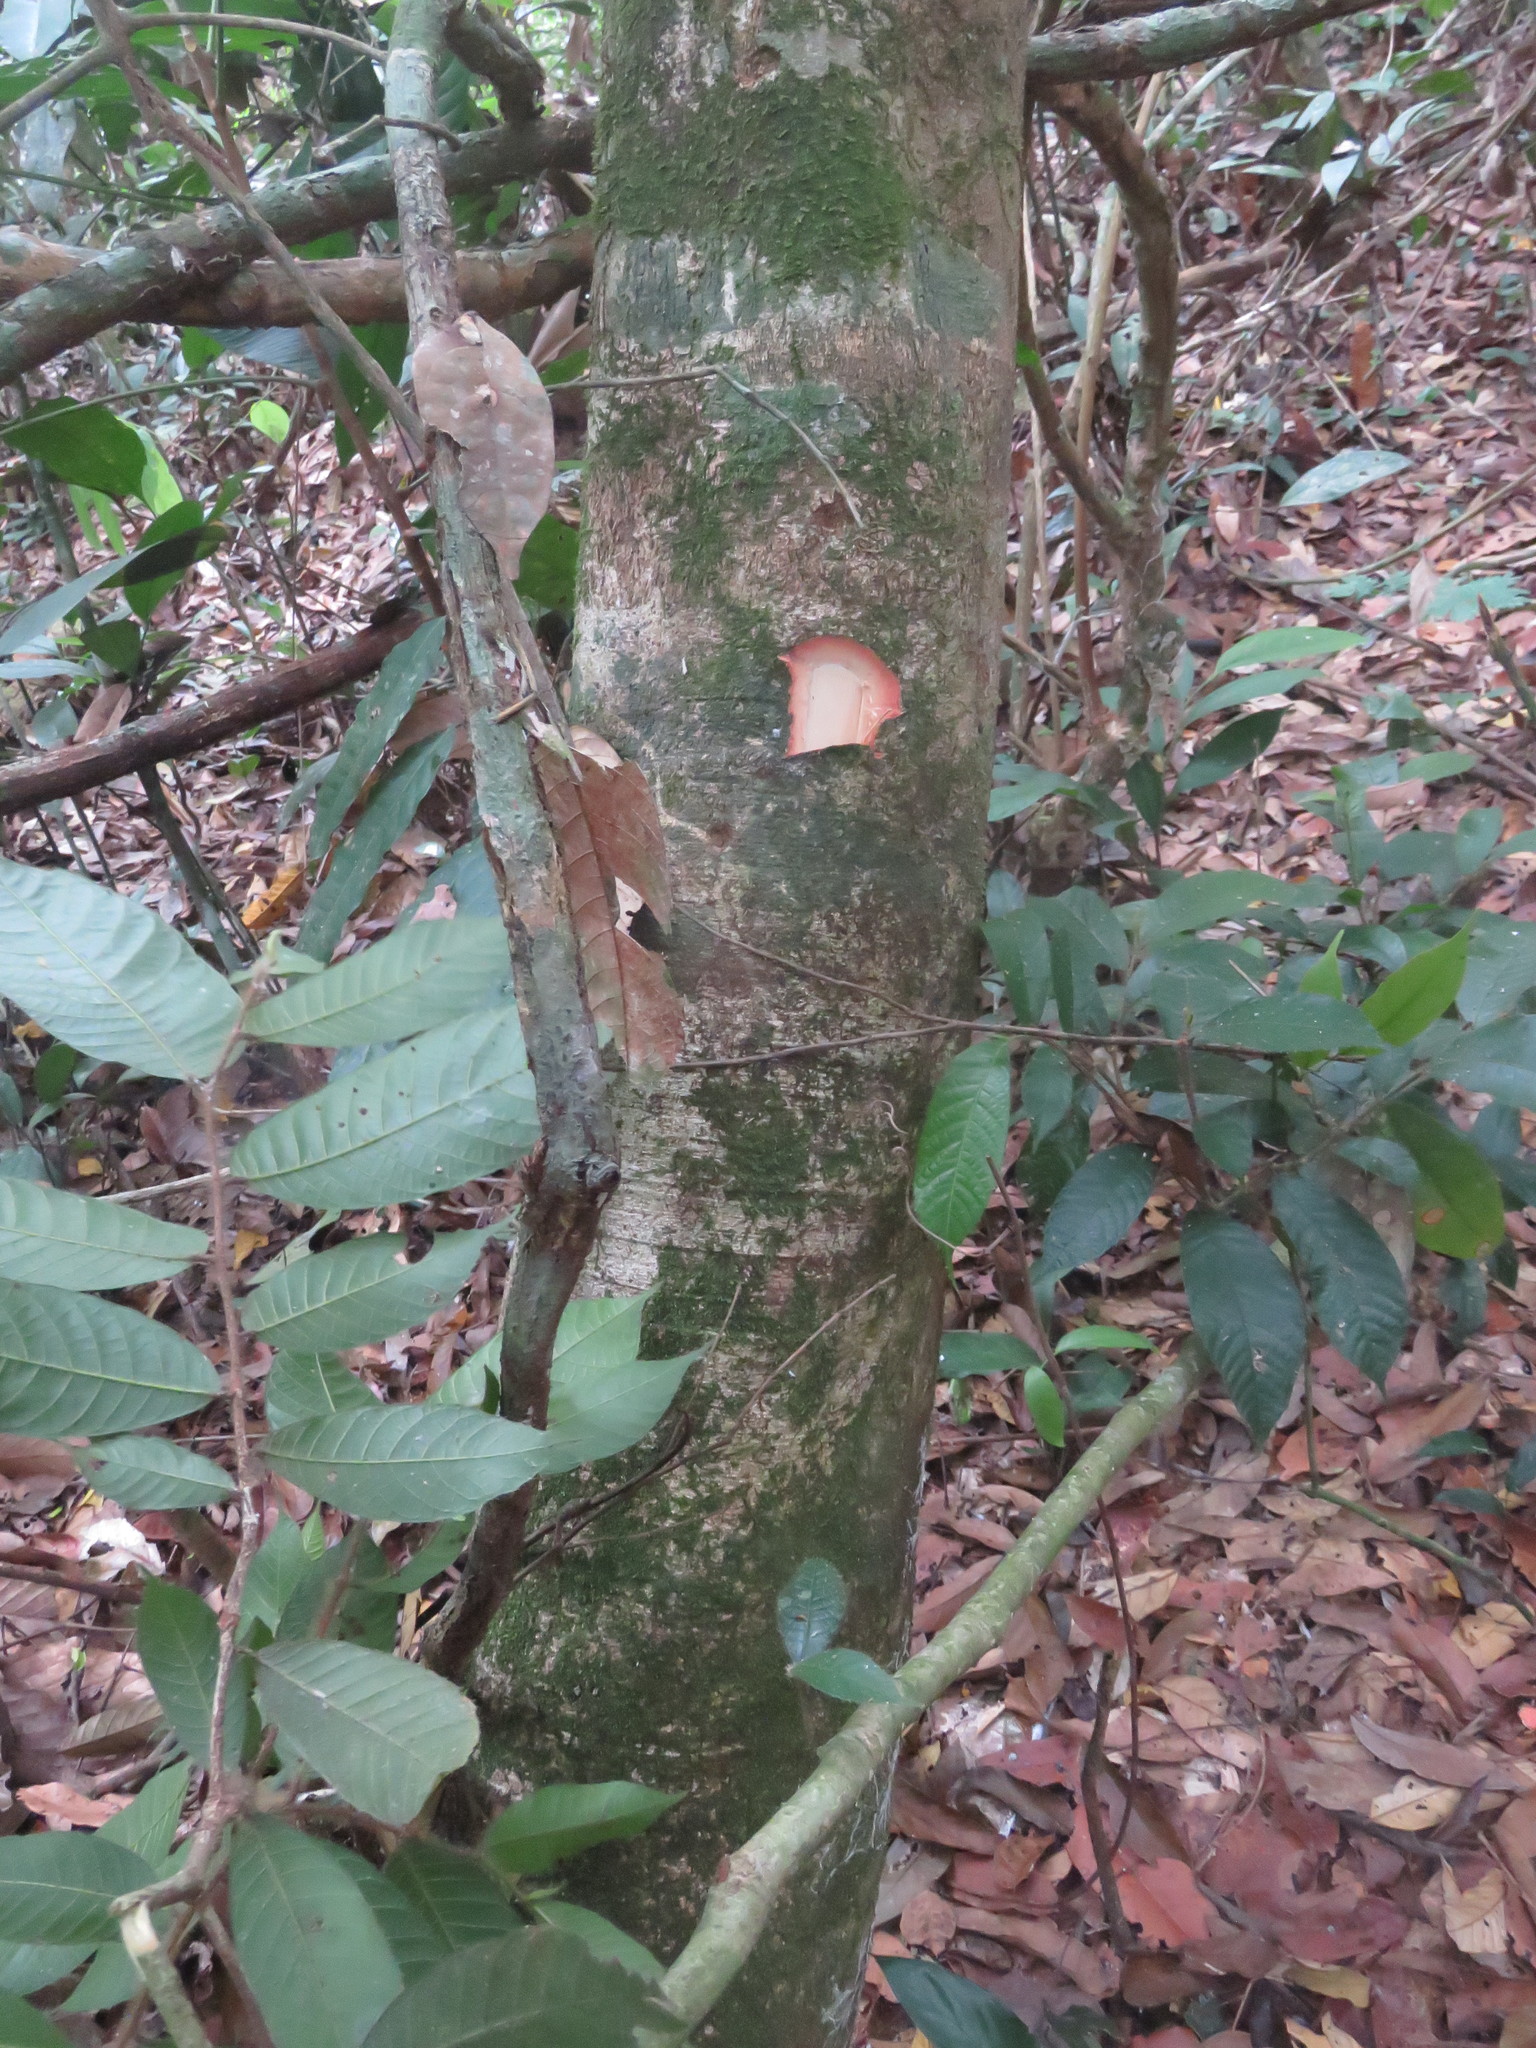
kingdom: Plantae
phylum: Tracheophyta
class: Magnoliopsida
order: Rosales
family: Moraceae
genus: Sorocea
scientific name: Sorocea steinbachii
